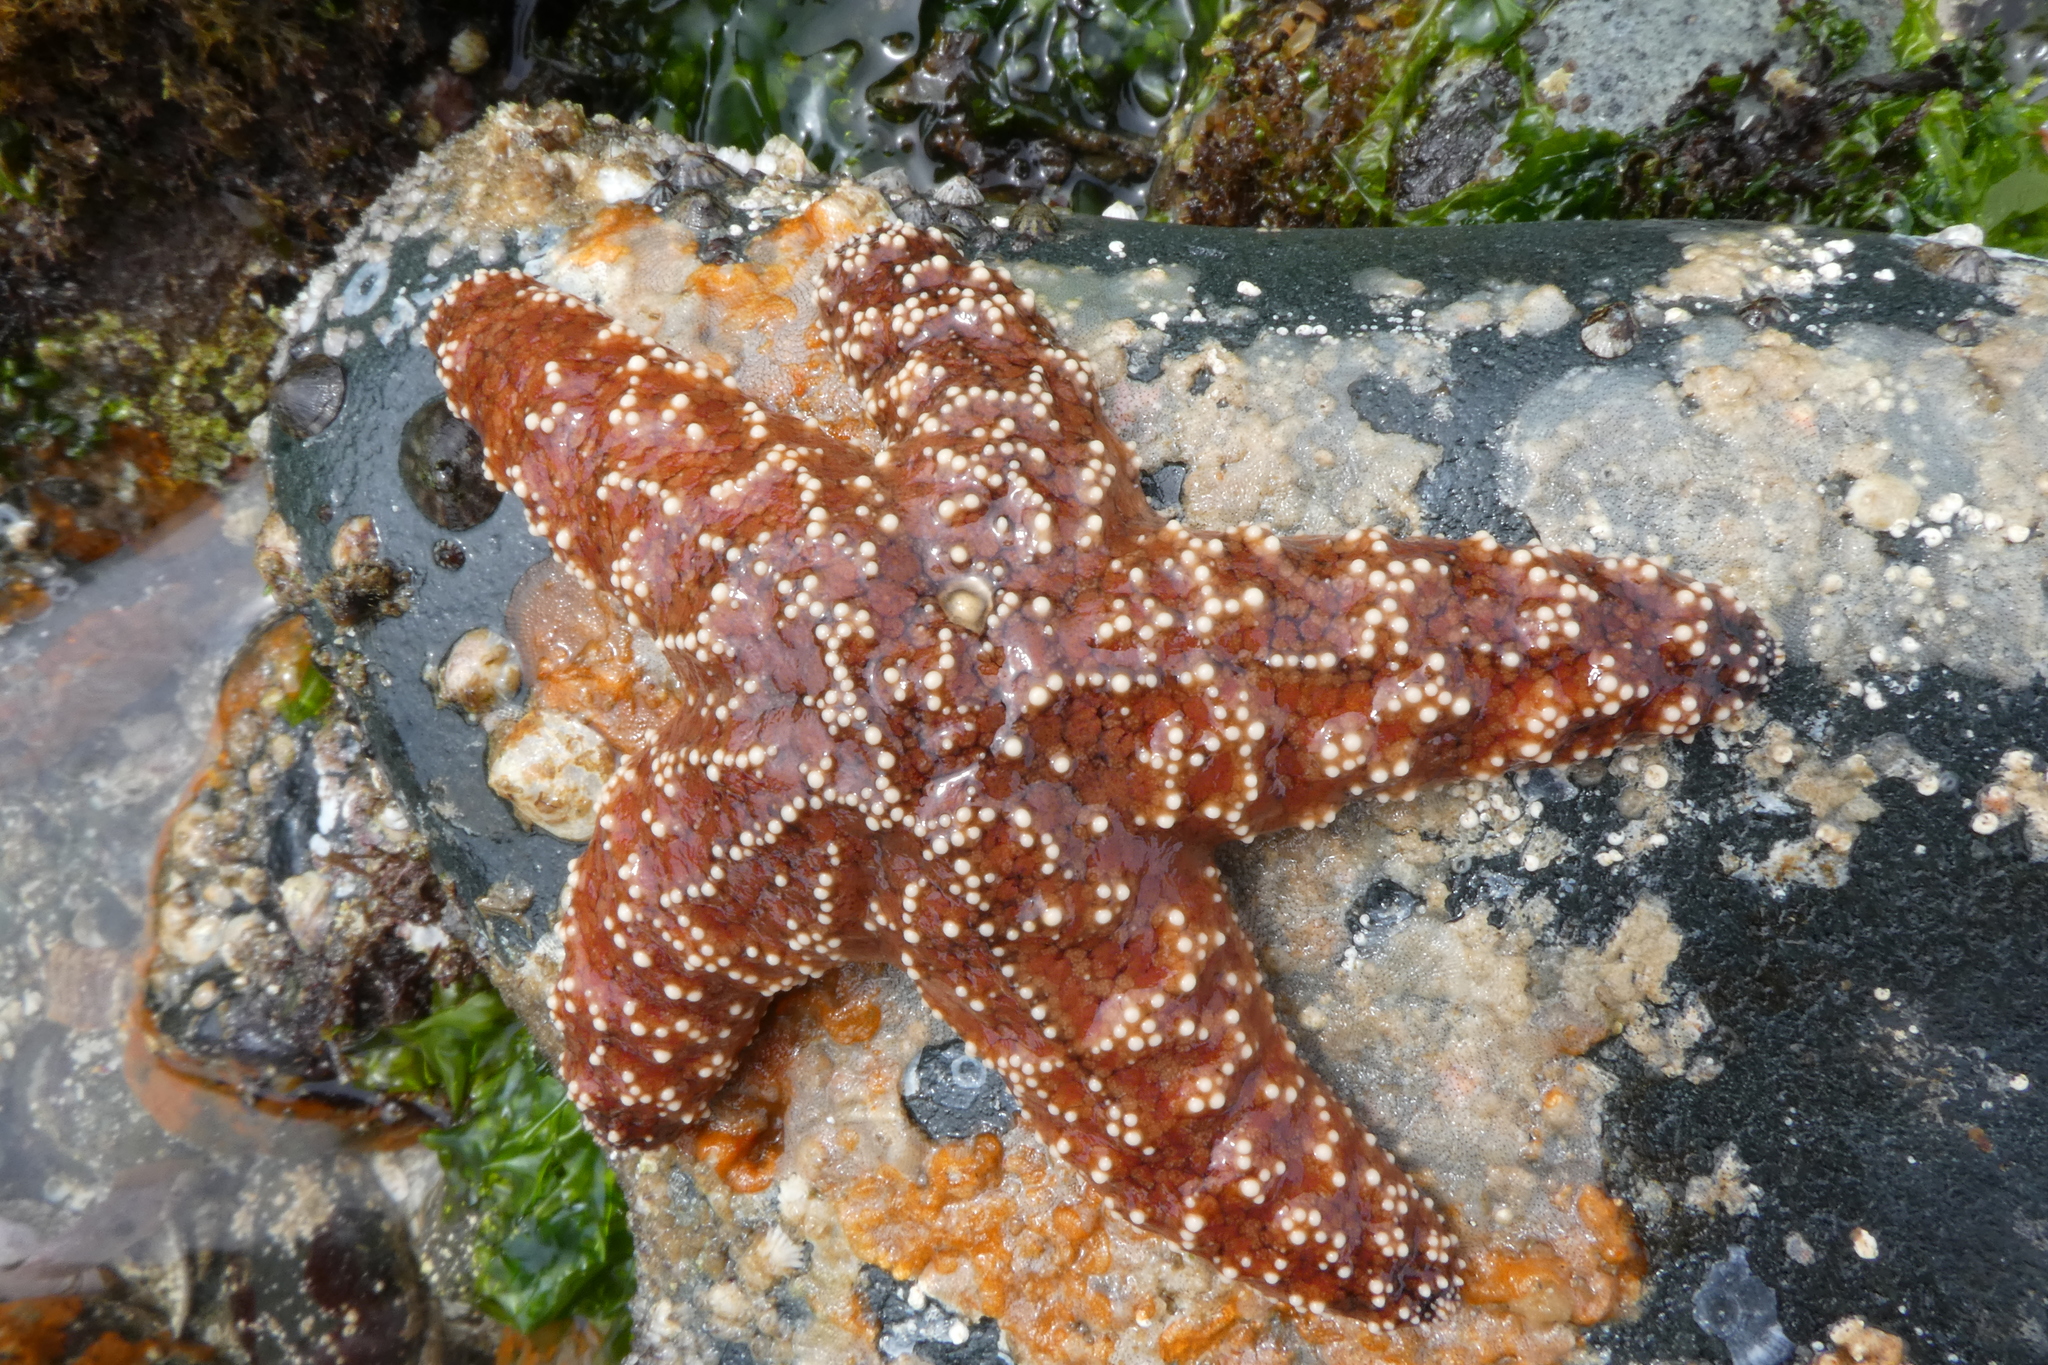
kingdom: Animalia
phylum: Echinodermata
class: Asteroidea
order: Forcipulatida
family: Asteriidae
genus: Pisaster
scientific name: Pisaster ochraceus
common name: Ochre stars
